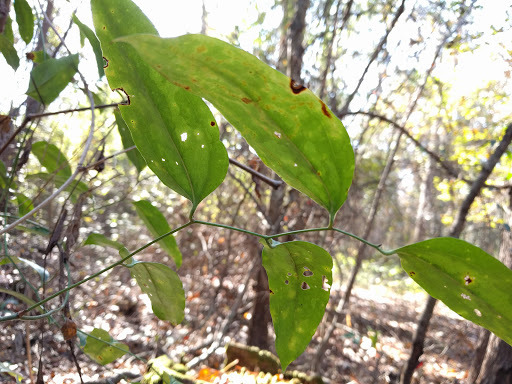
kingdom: Plantae
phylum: Tracheophyta
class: Liliopsida
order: Liliales
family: Smilacaceae
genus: Smilax
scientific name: Smilax maritima
